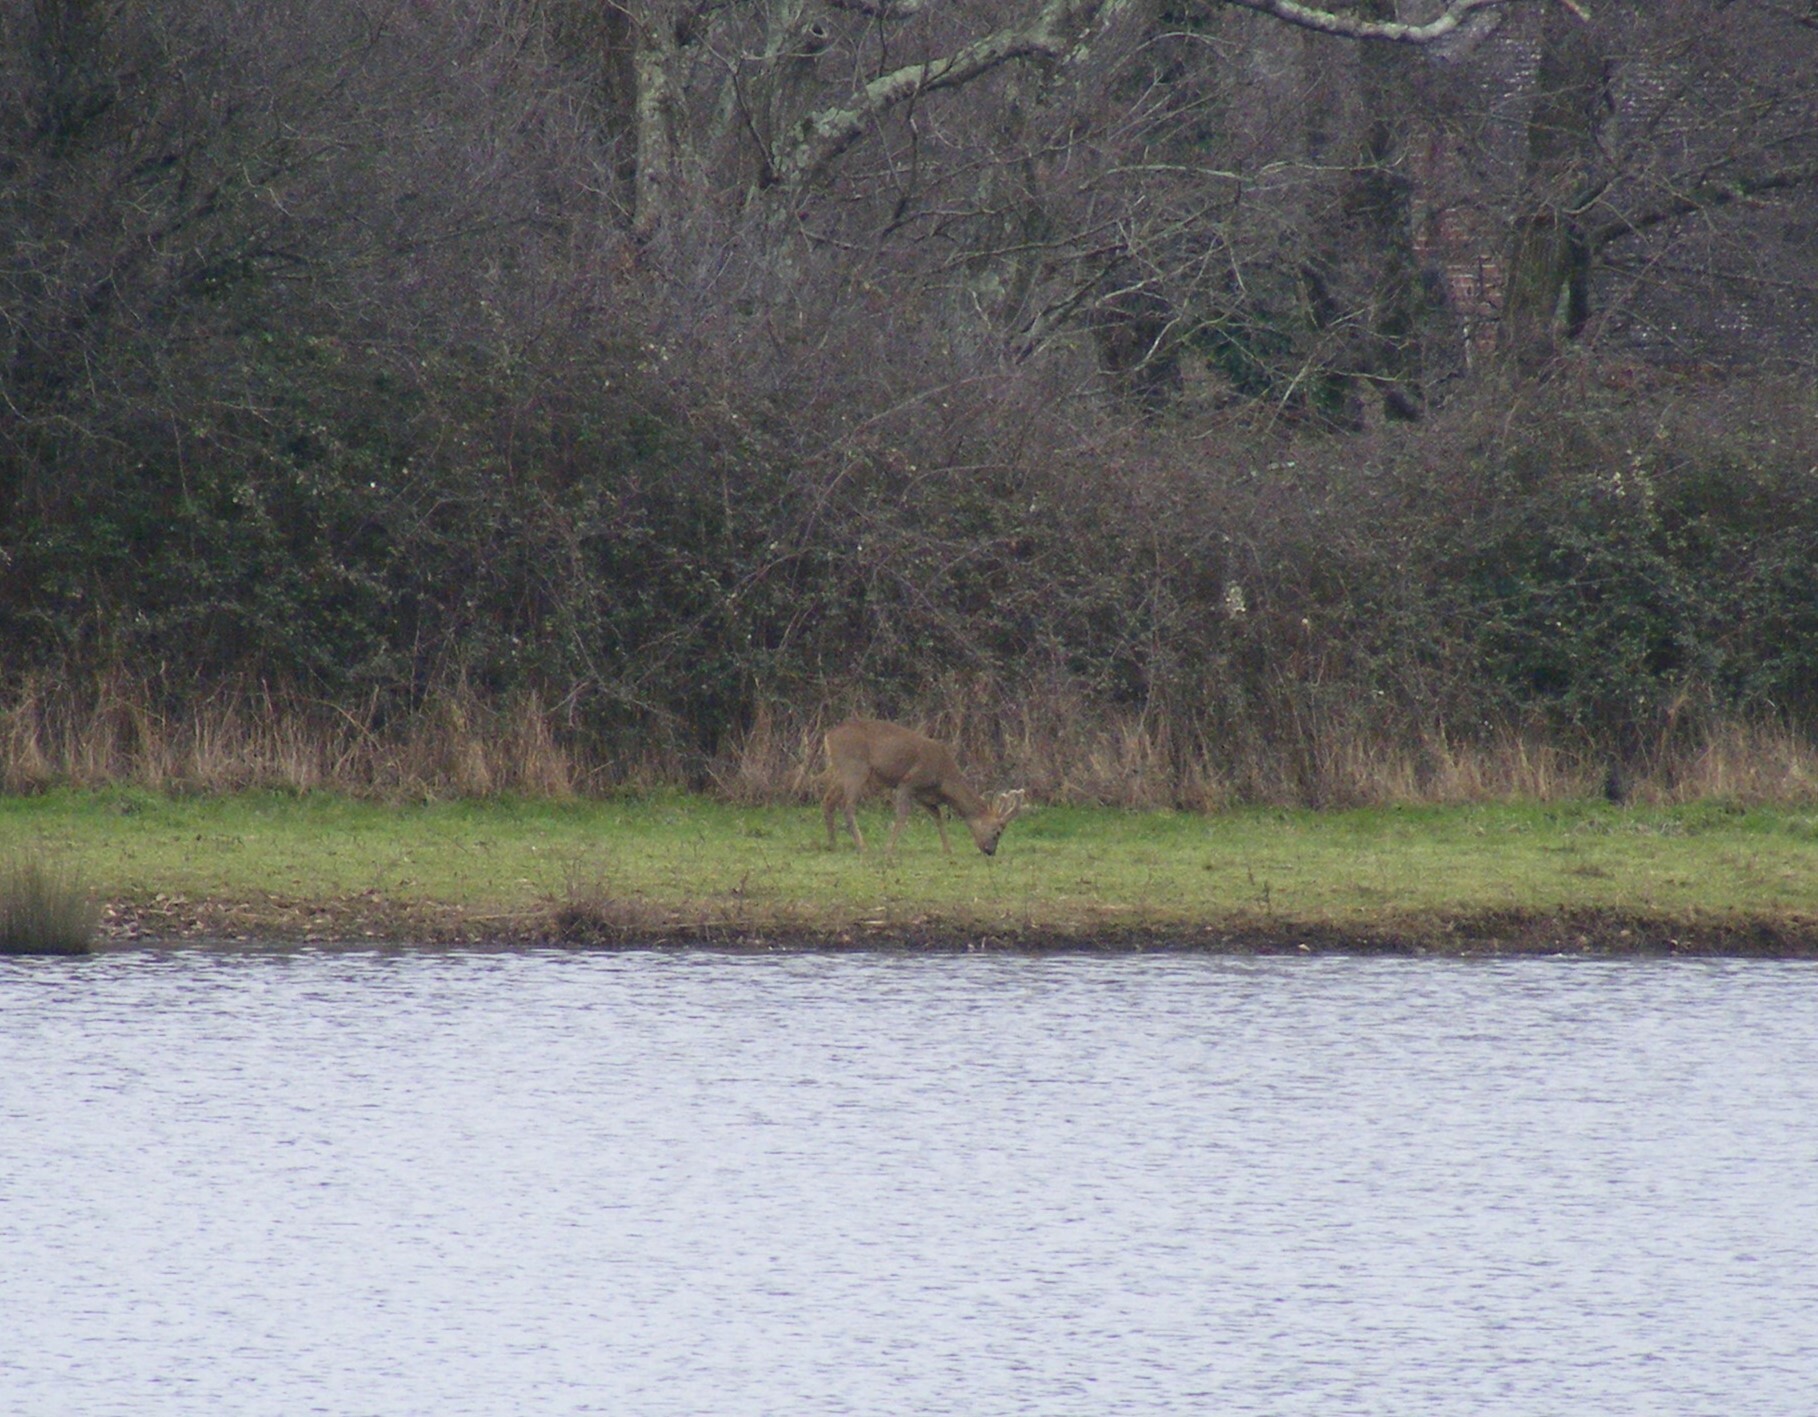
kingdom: Animalia
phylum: Chordata
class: Mammalia
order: Artiodactyla
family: Cervidae
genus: Capreolus
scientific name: Capreolus capreolus
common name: Western roe deer
